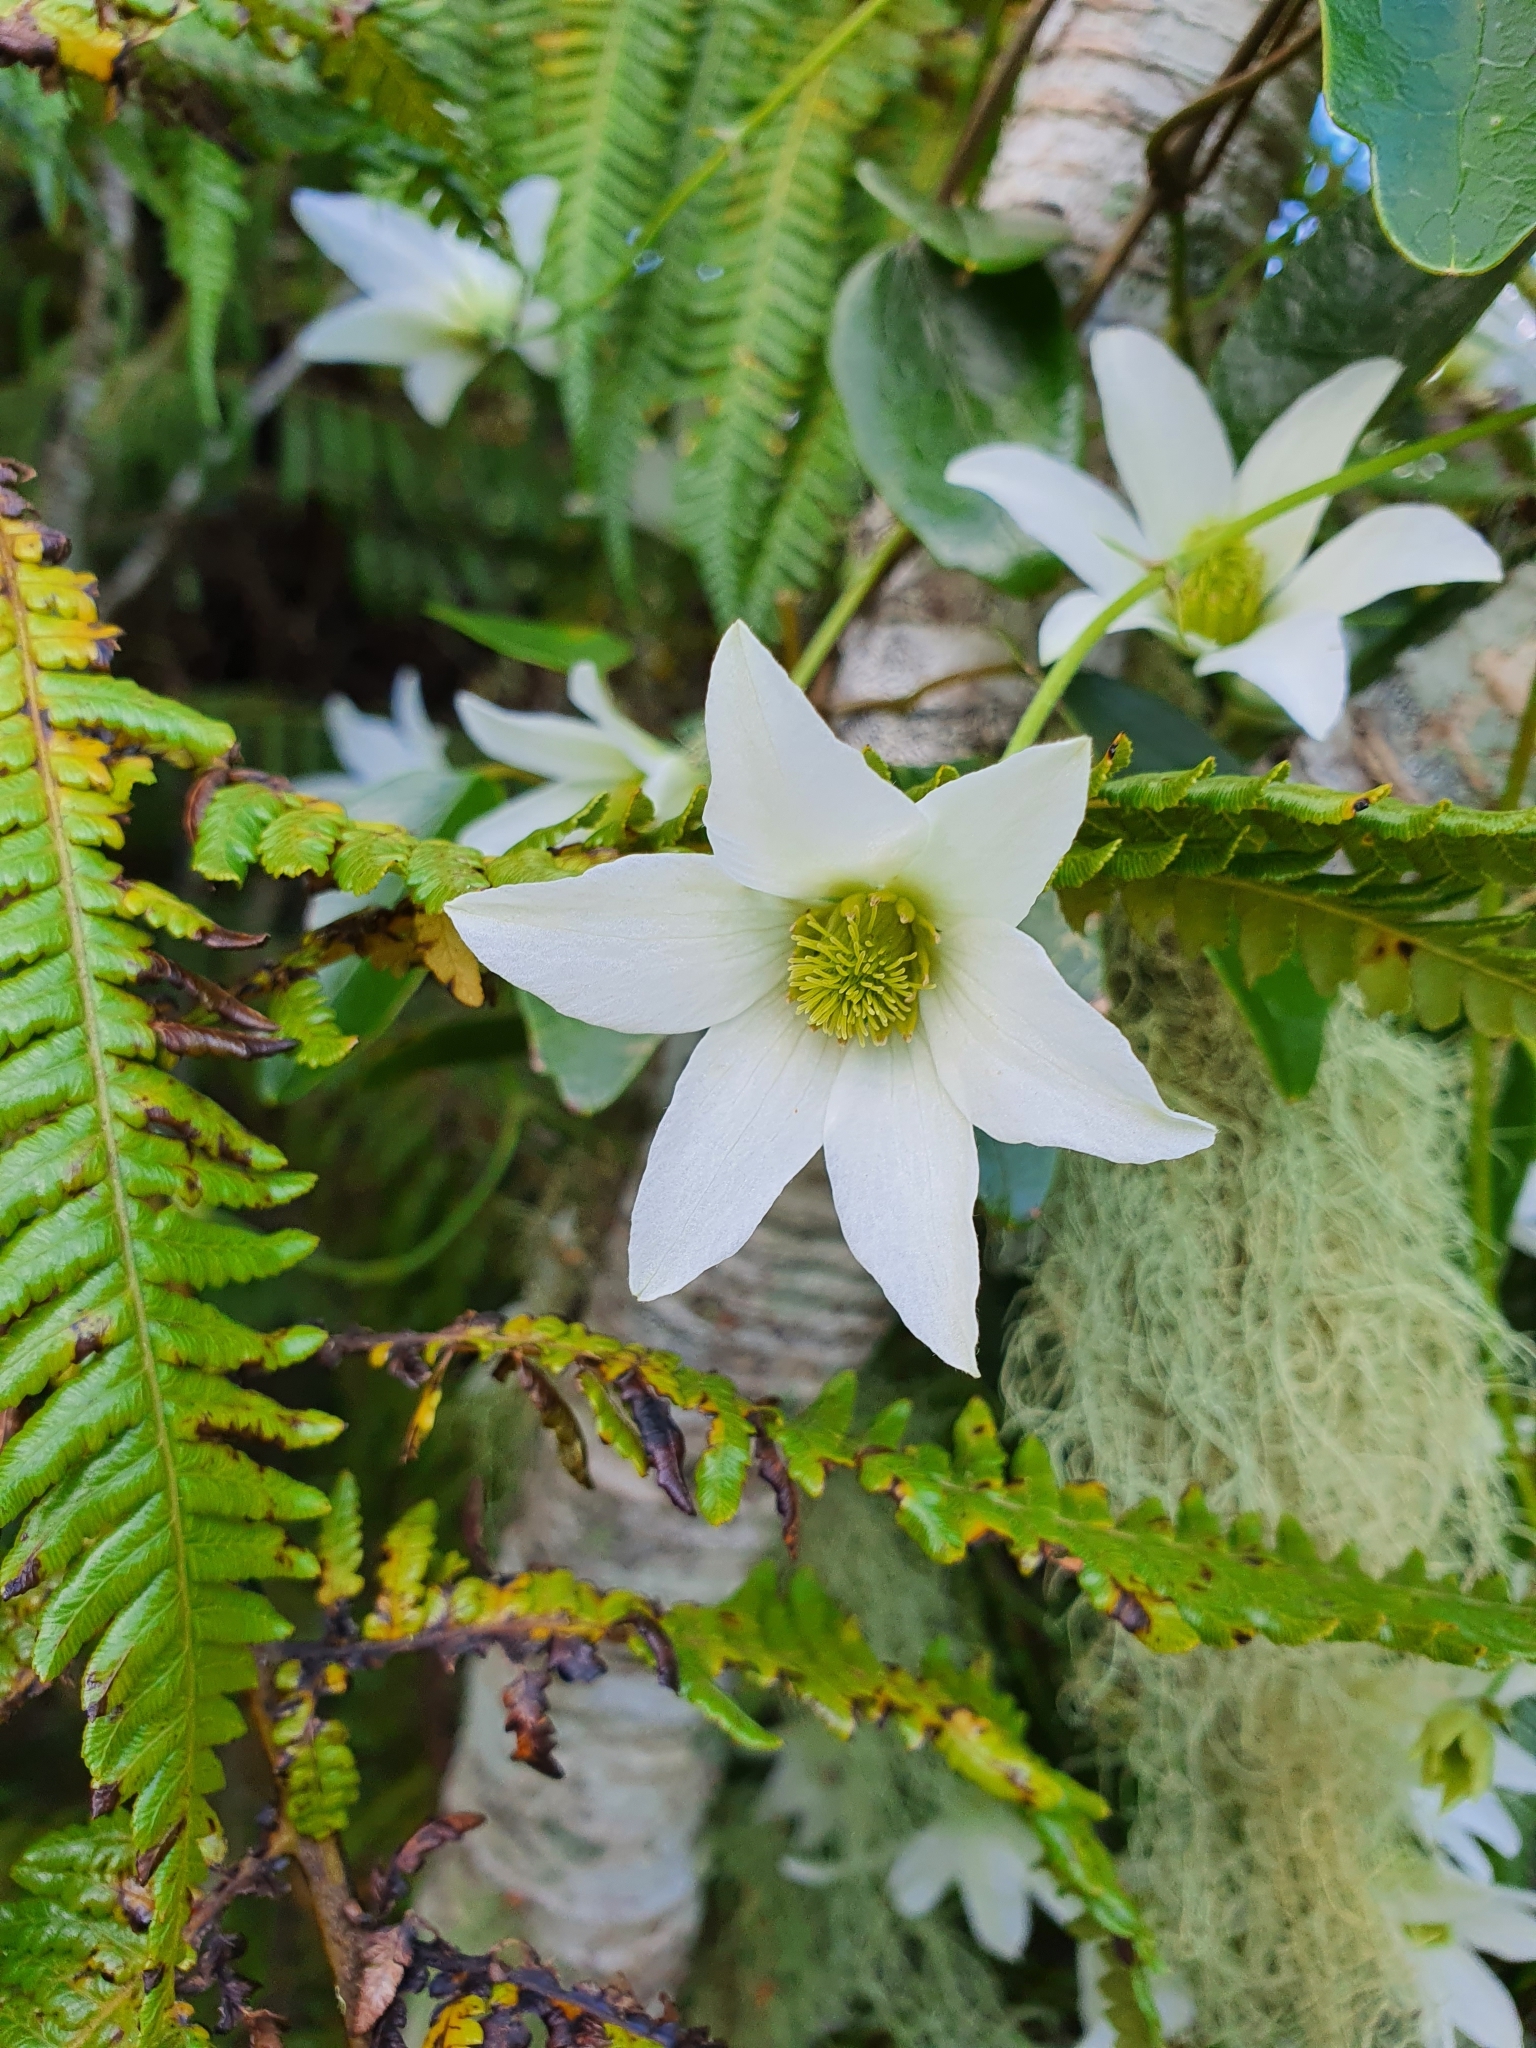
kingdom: Plantae
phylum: Tracheophyta
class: Magnoliopsida
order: Ranunculales
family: Ranunculaceae
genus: Clematis
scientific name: Clematis paniculata
